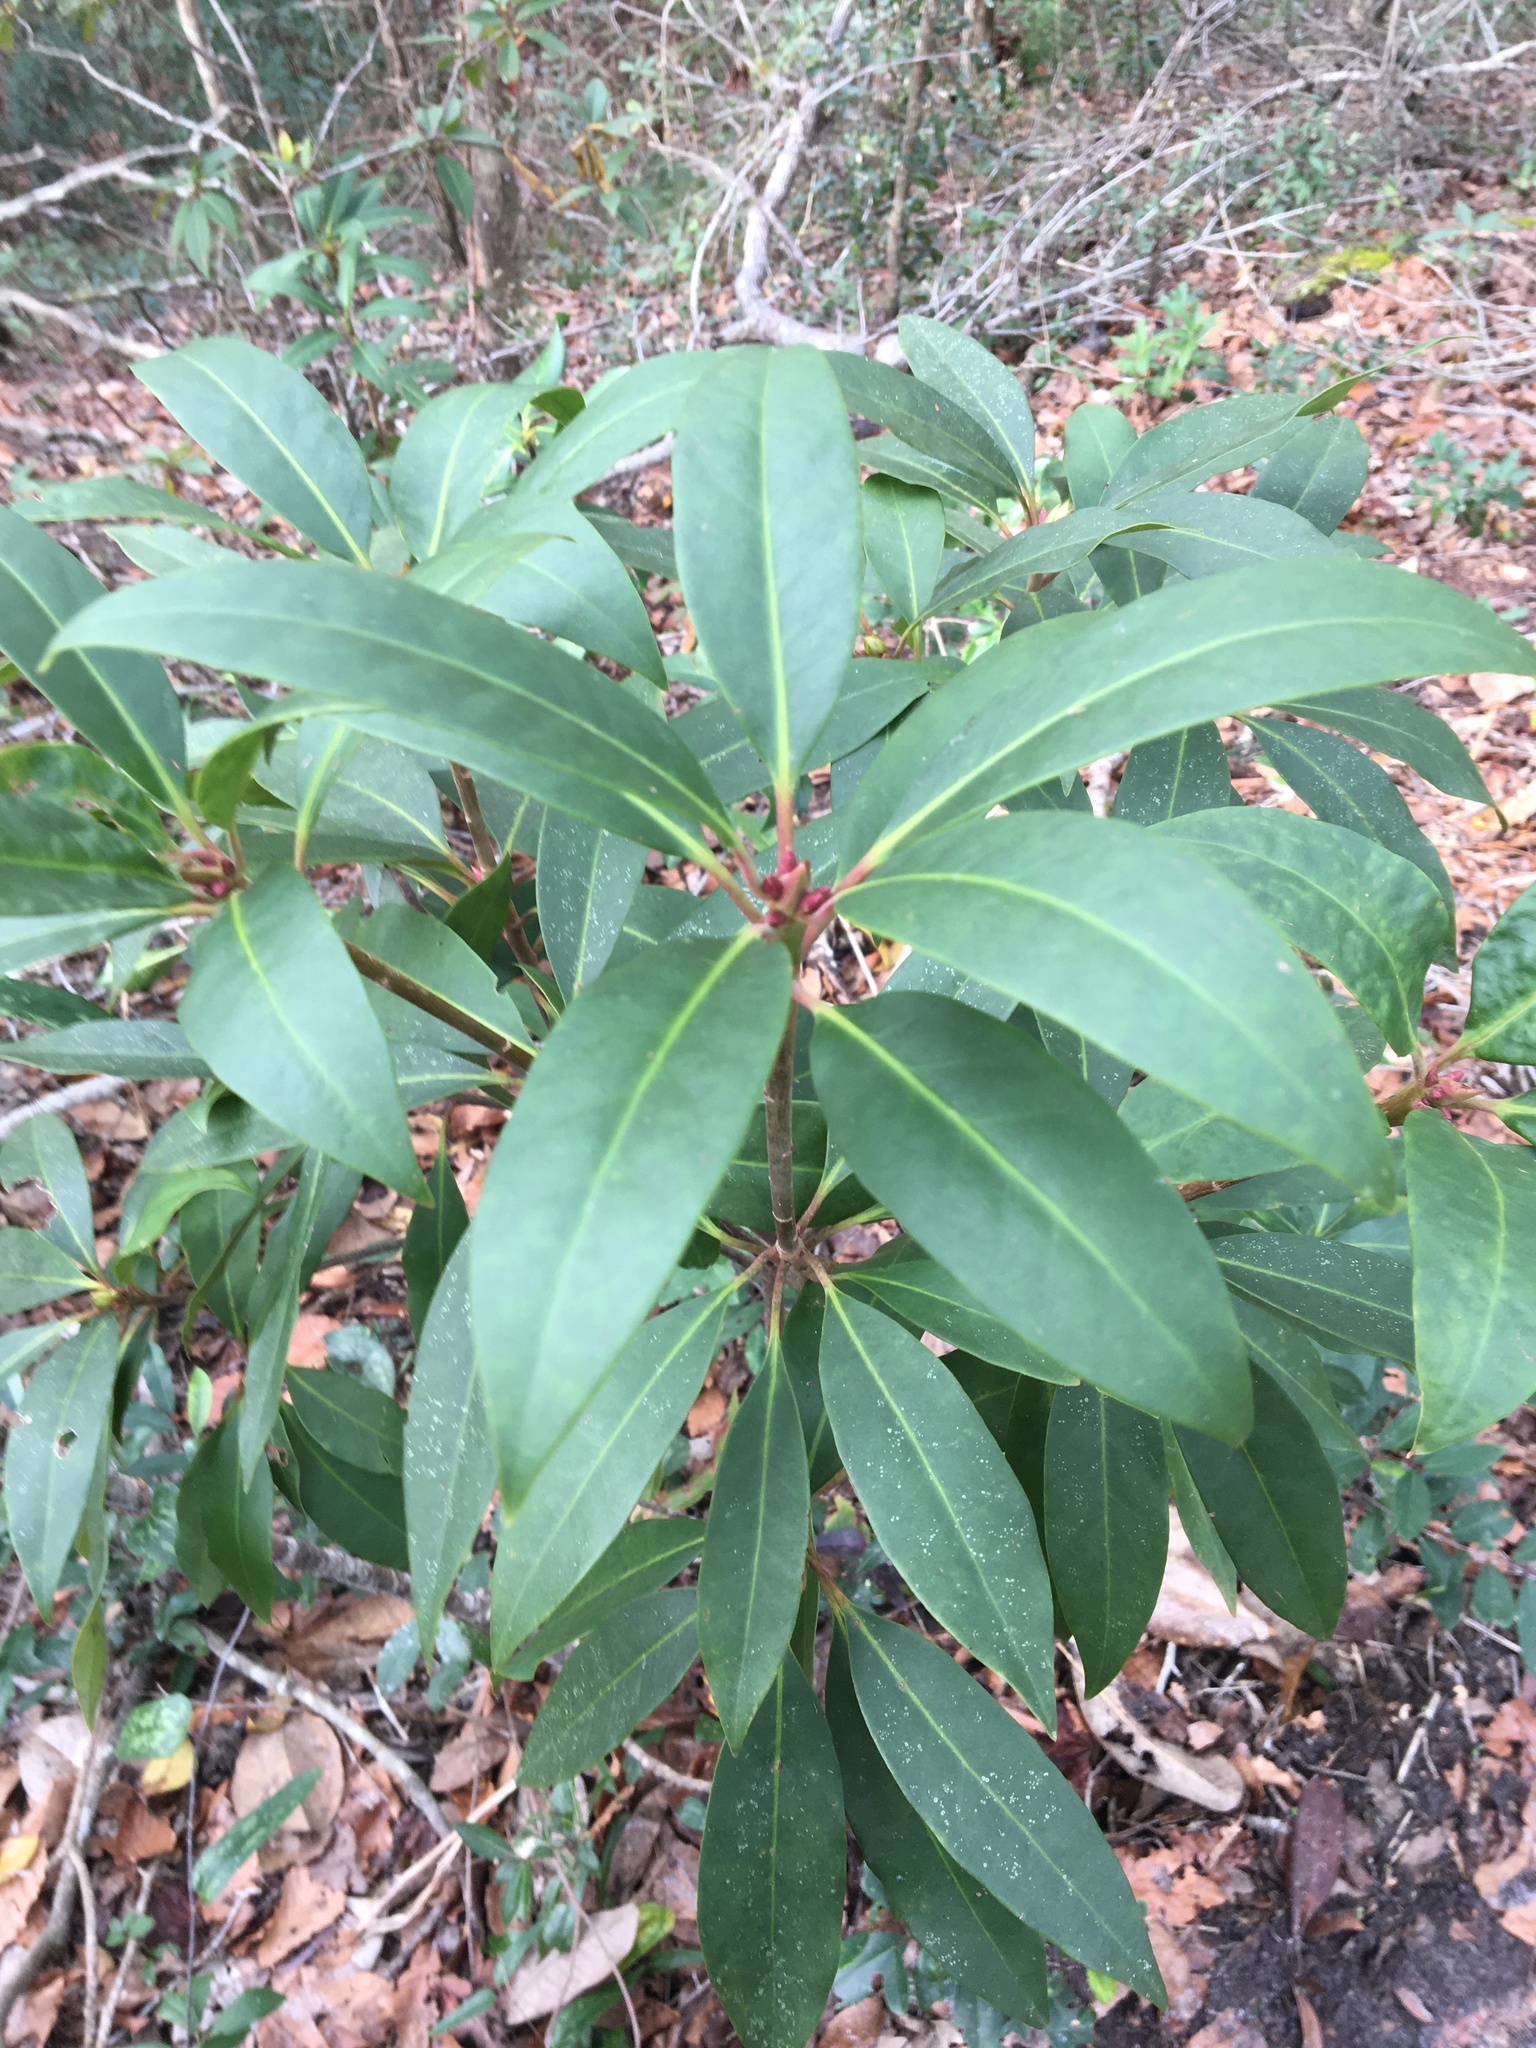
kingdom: Plantae
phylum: Tracheophyta
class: Magnoliopsida
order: Austrobaileyales
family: Schisandraceae
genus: Illicium
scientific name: Illicium floridanum
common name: Florida anisetree
